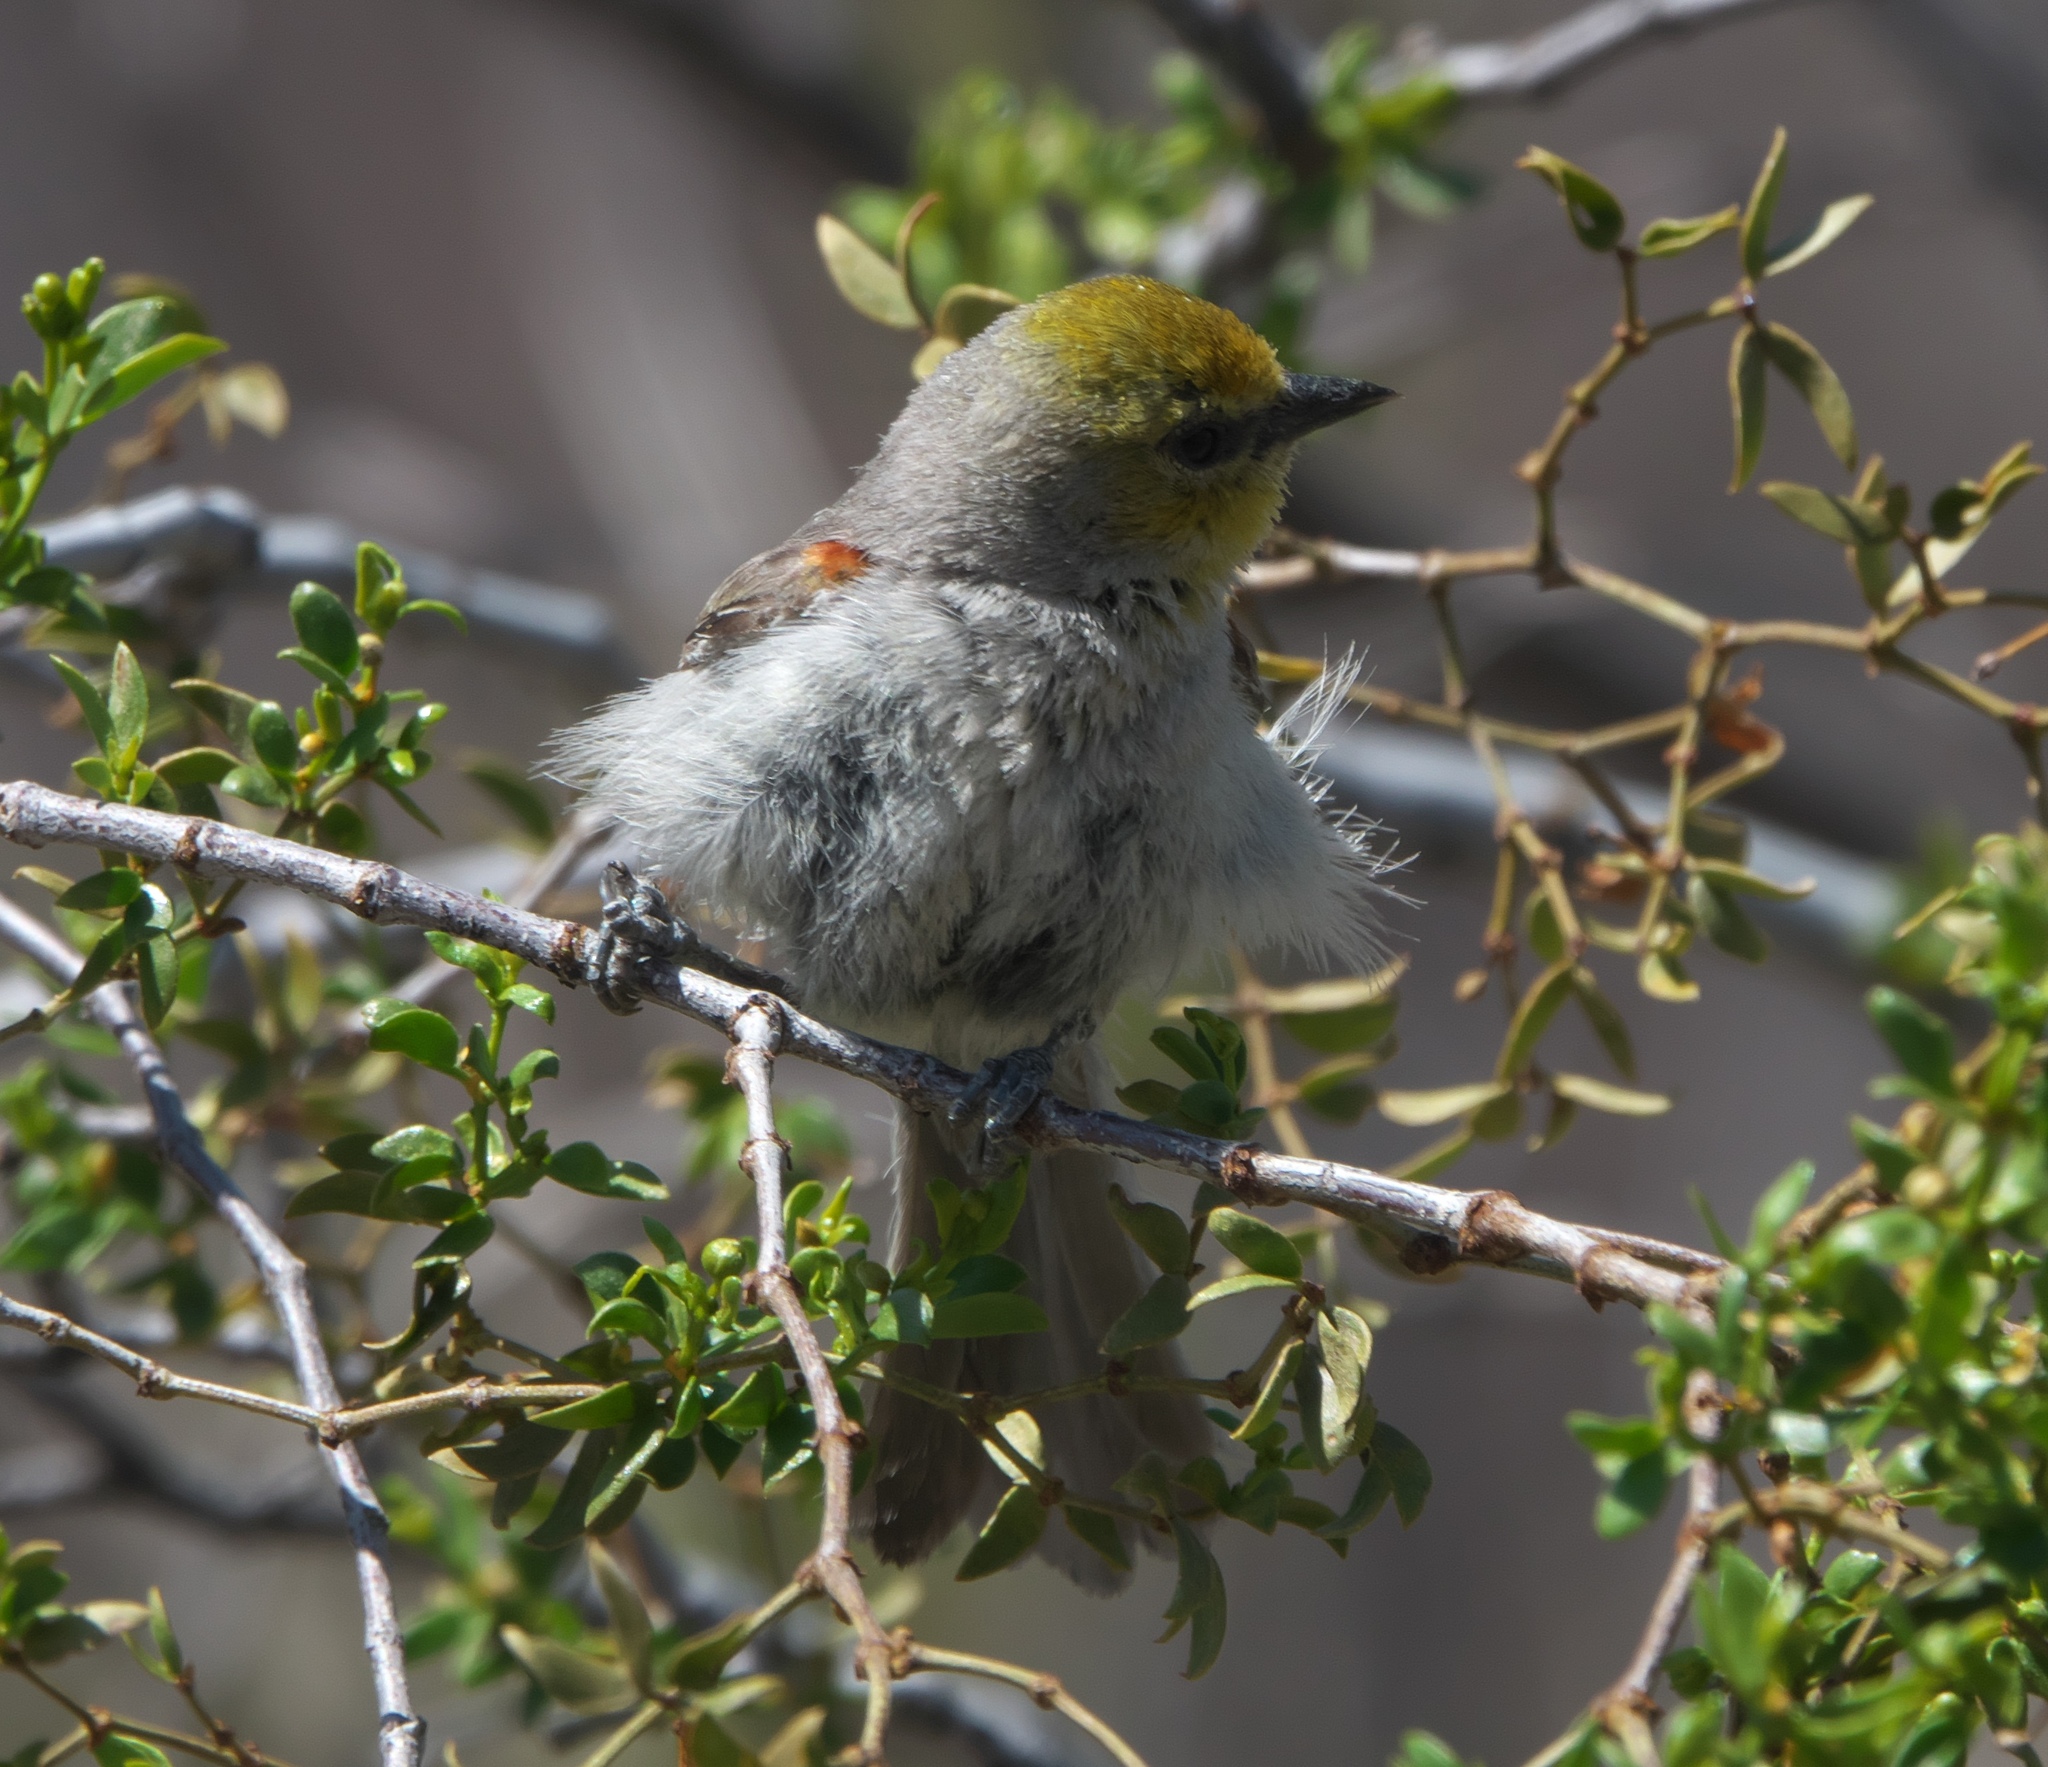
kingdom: Animalia
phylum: Chordata
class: Aves
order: Passeriformes
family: Remizidae
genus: Auriparus
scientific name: Auriparus flaviceps
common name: Verdin
